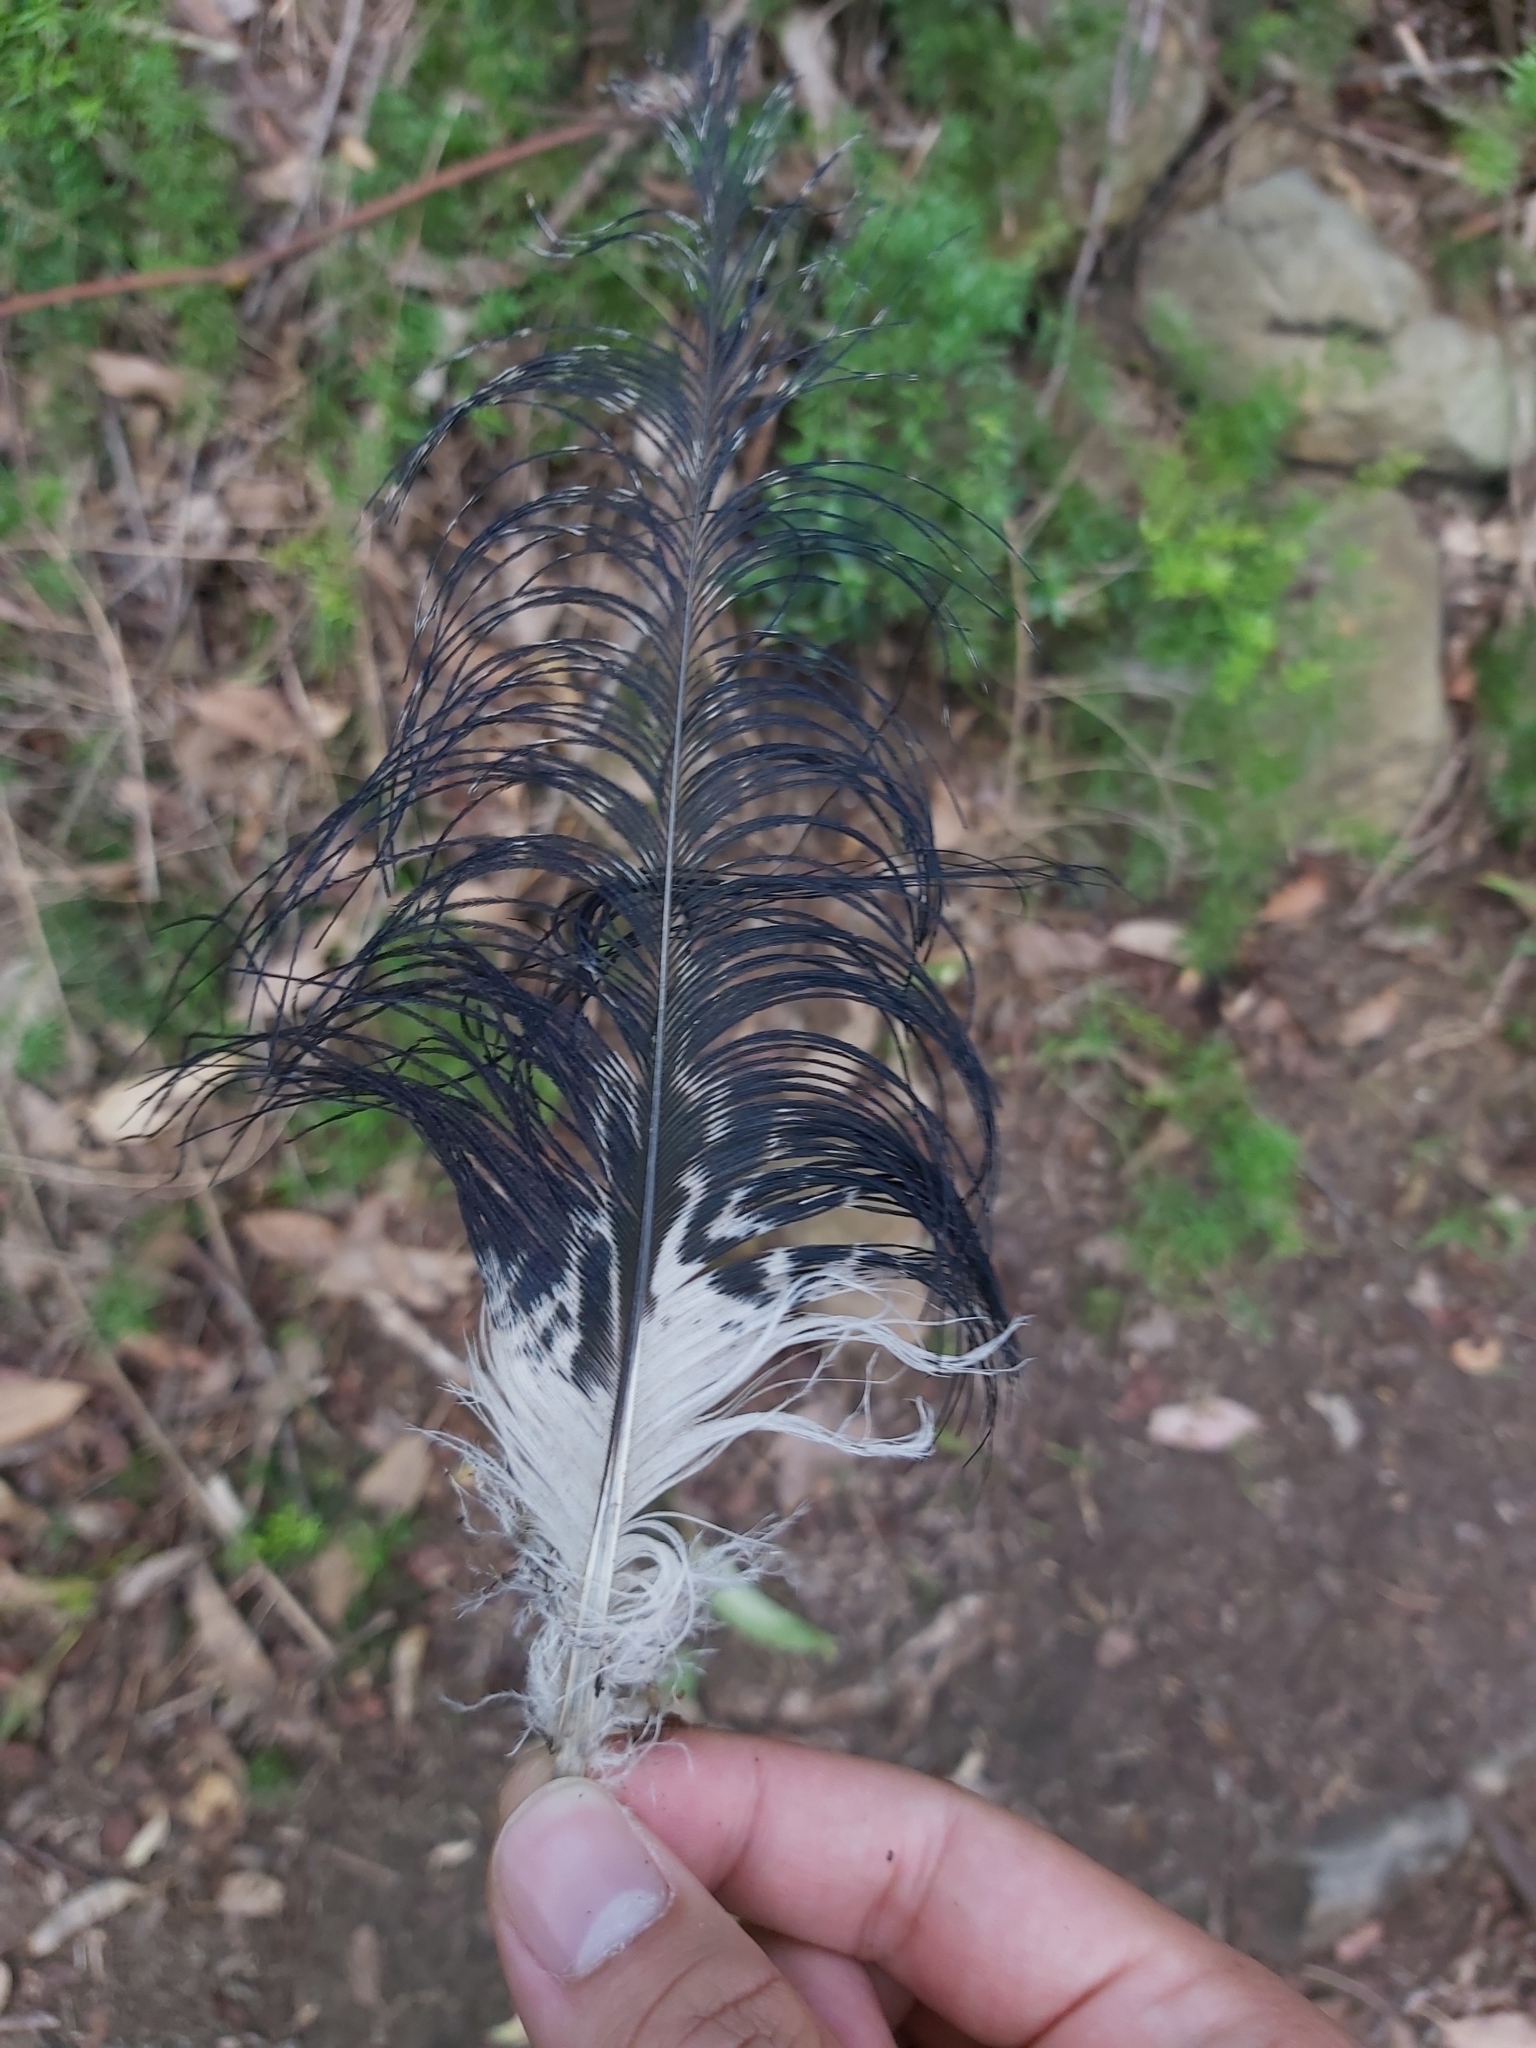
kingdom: Animalia
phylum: Chordata
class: Aves
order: Pelecaniformes
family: Threskiornithidae
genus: Threskiornis
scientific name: Threskiornis molucca
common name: Australian white ibis
